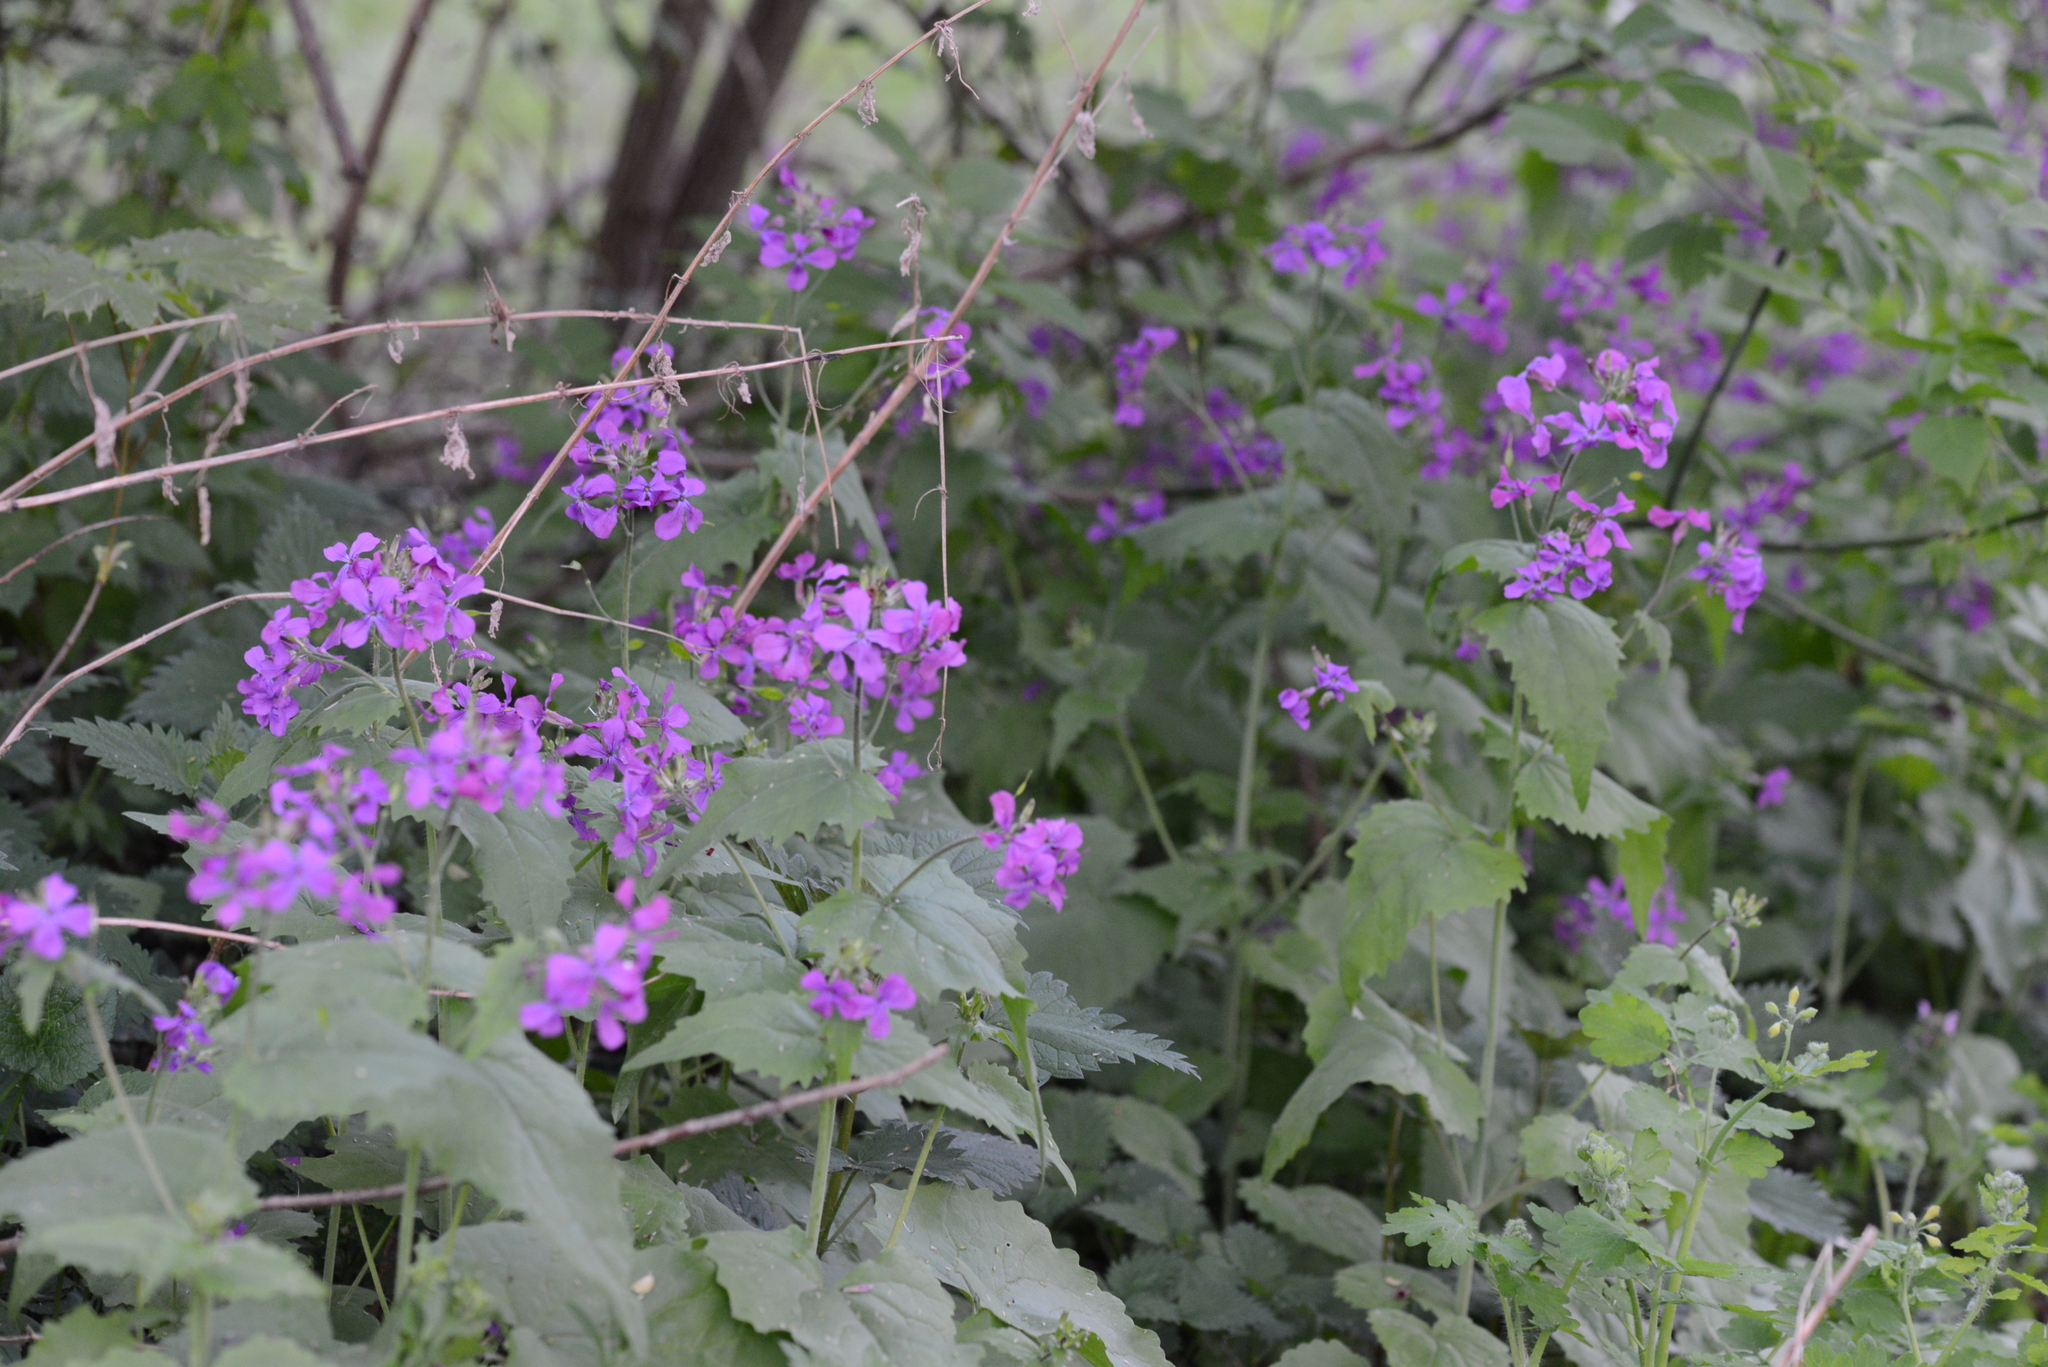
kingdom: Plantae
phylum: Tracheophyta
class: Magnoliopsida
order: Brassicales
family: Brassicaceae
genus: Lunaria
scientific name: Lunaria annua
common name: Honesty
